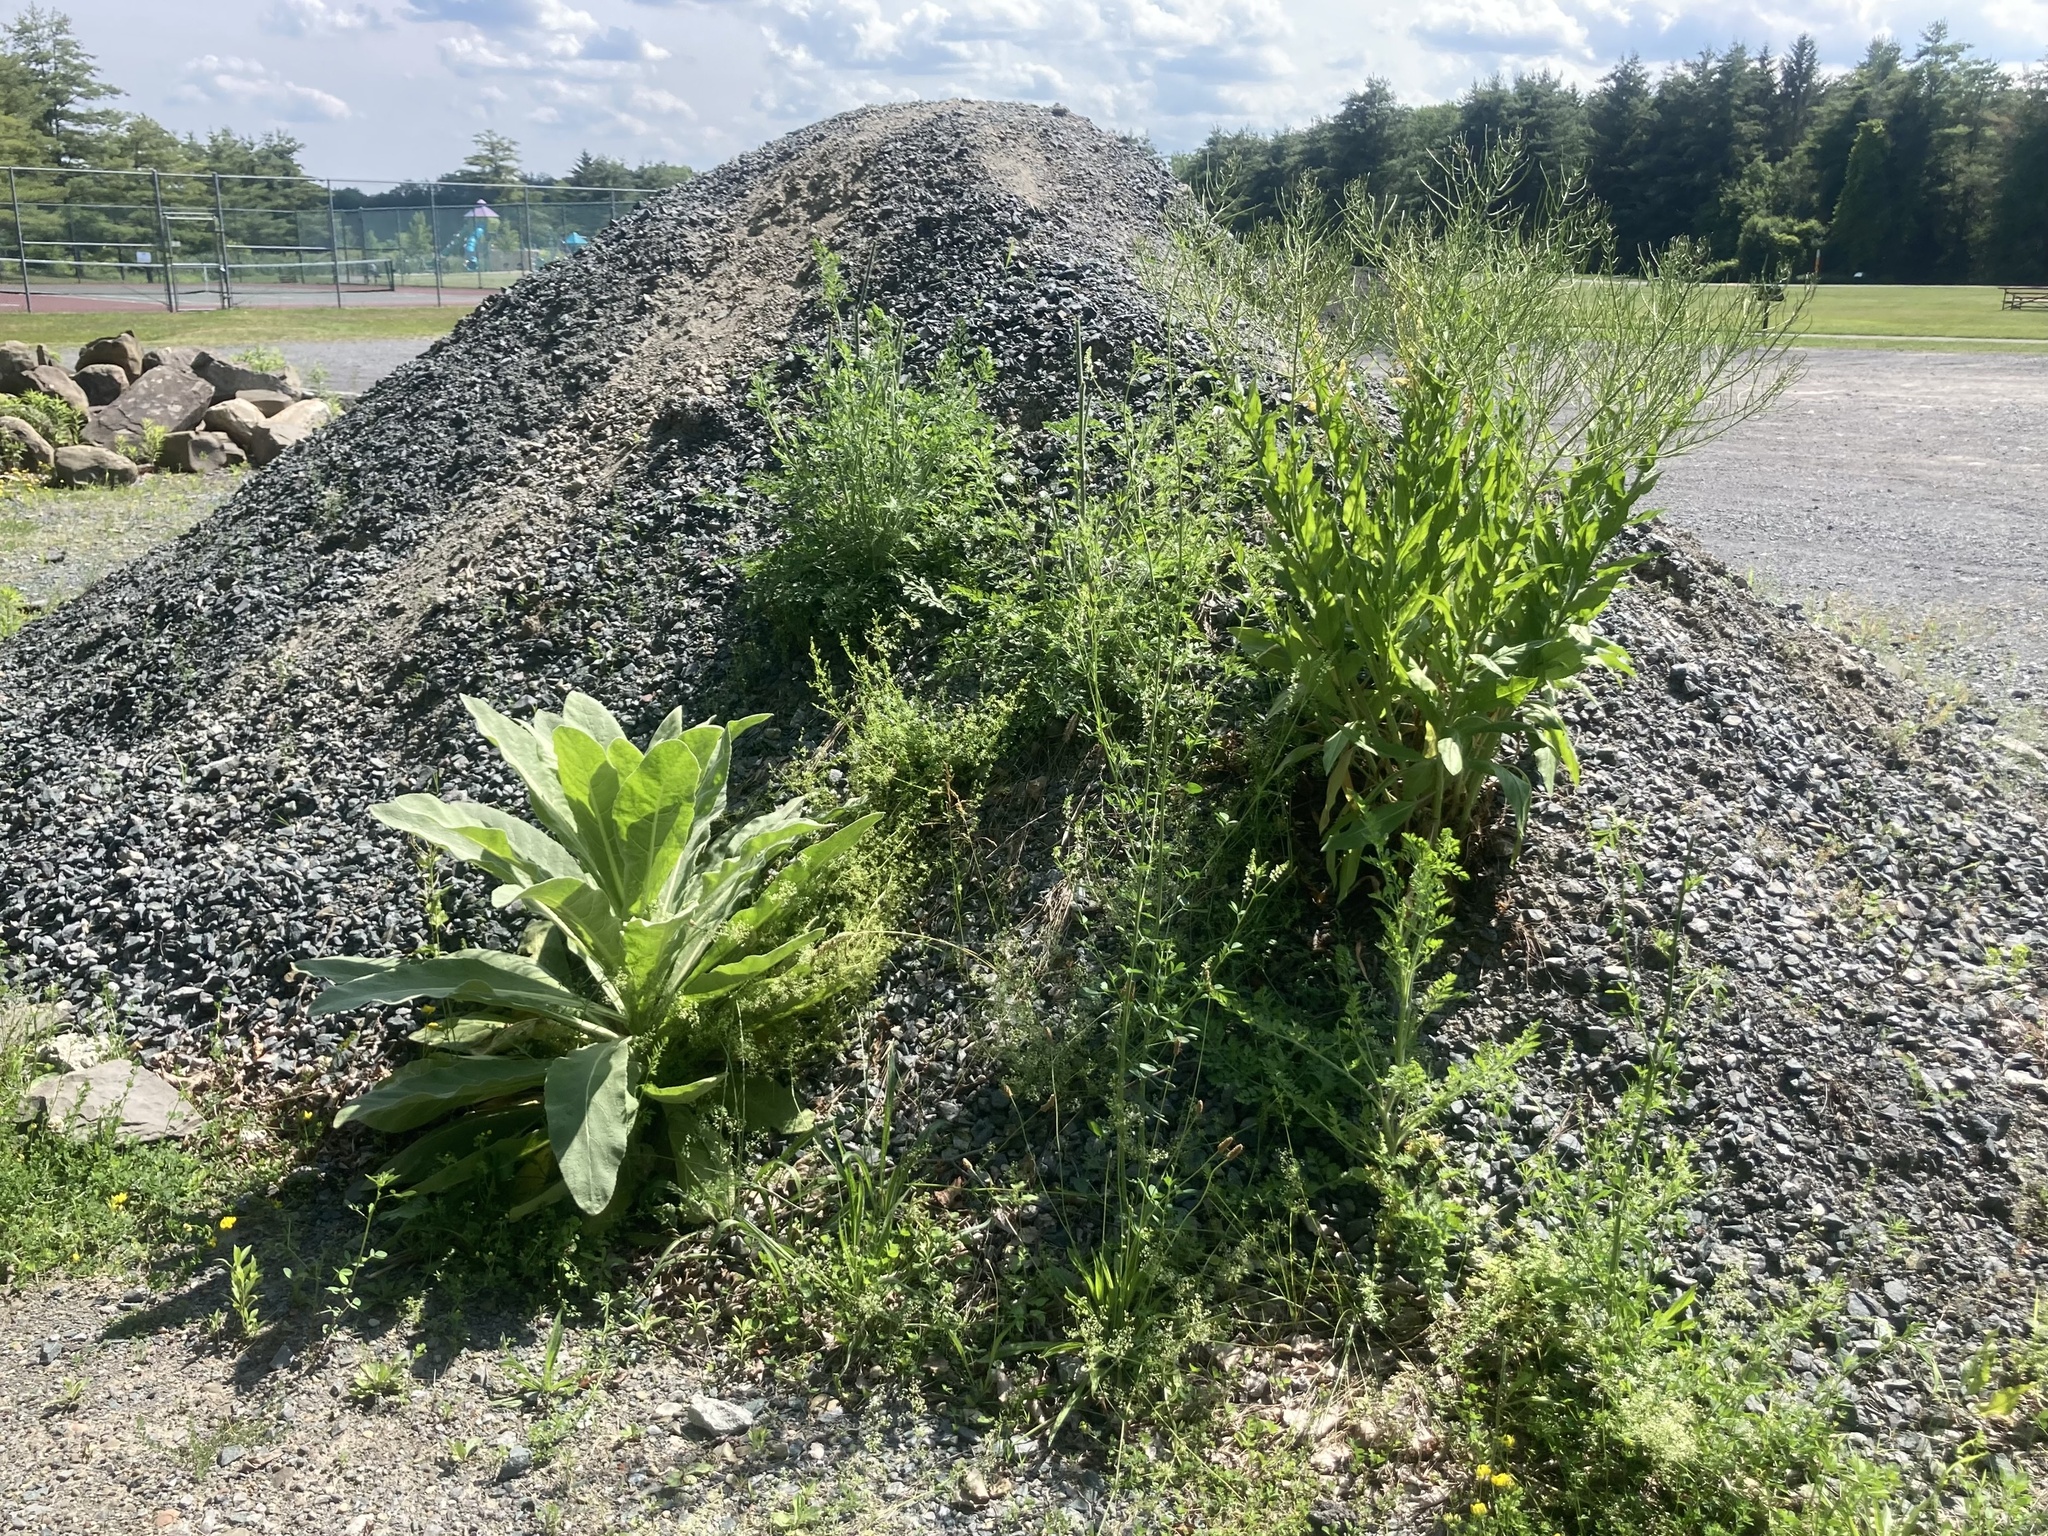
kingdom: Plantae
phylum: Tracheophyta
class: Magnoliopsida
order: Lamiales
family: Scrophulariaceae
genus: Verbascum
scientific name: Verbascum thapsus
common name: Common mullein
